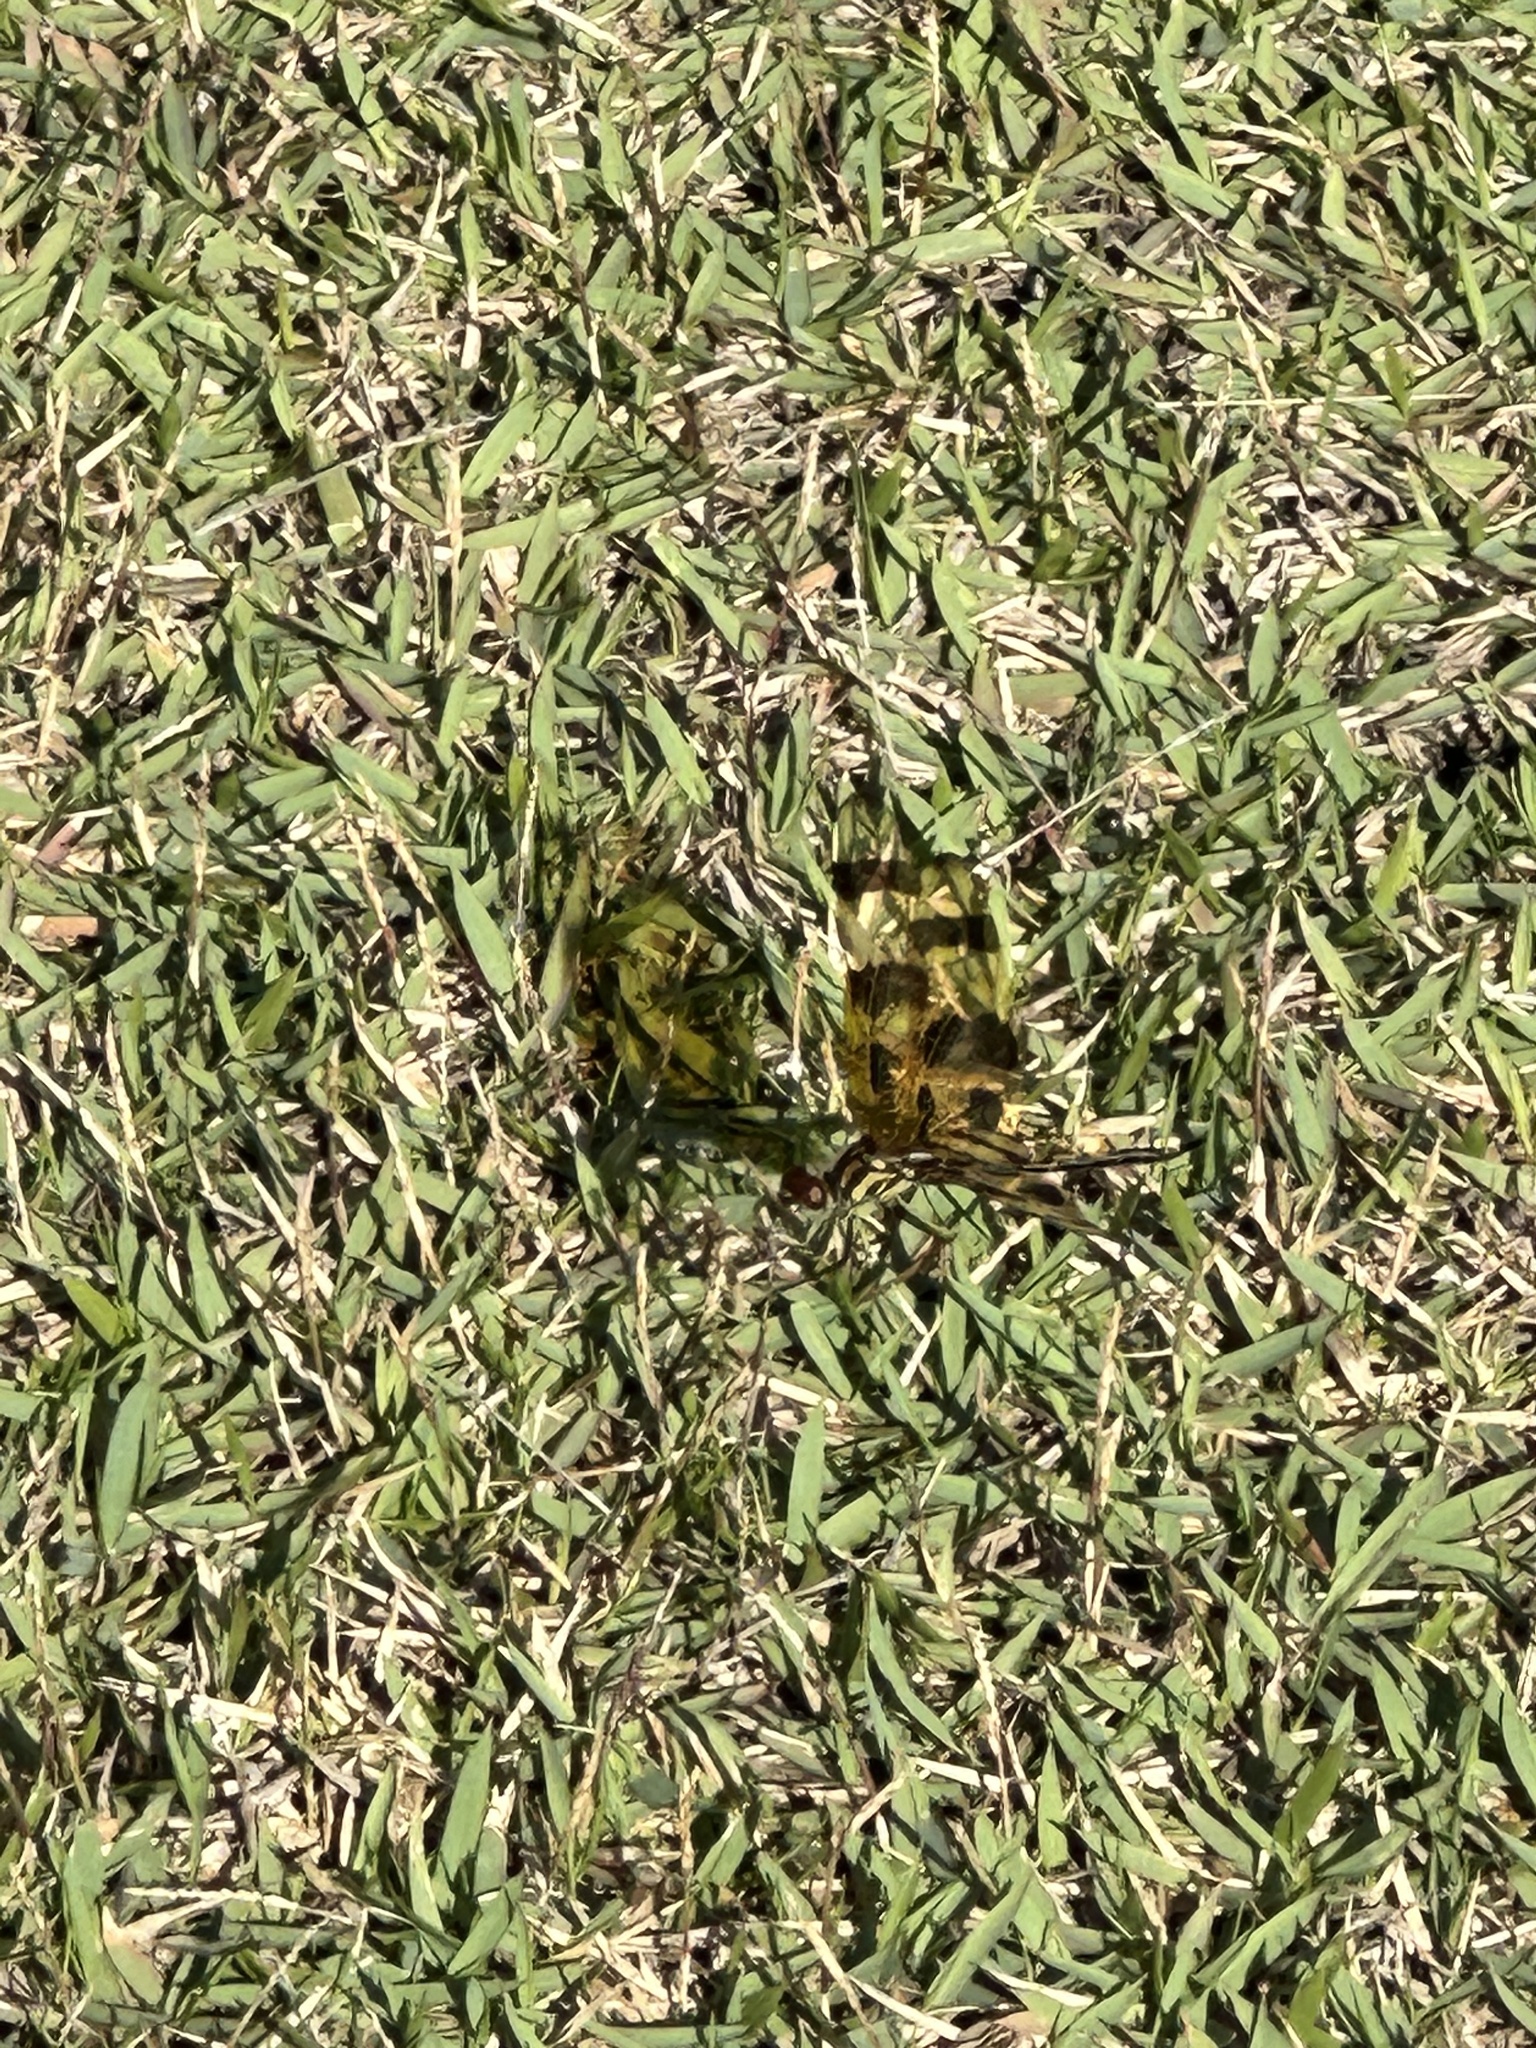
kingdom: Animalia
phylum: Arthropoda
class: Insecta
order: Odonata
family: Libellulidae
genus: Celithemis
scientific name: Celithemis eponina
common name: Halloween pennant
